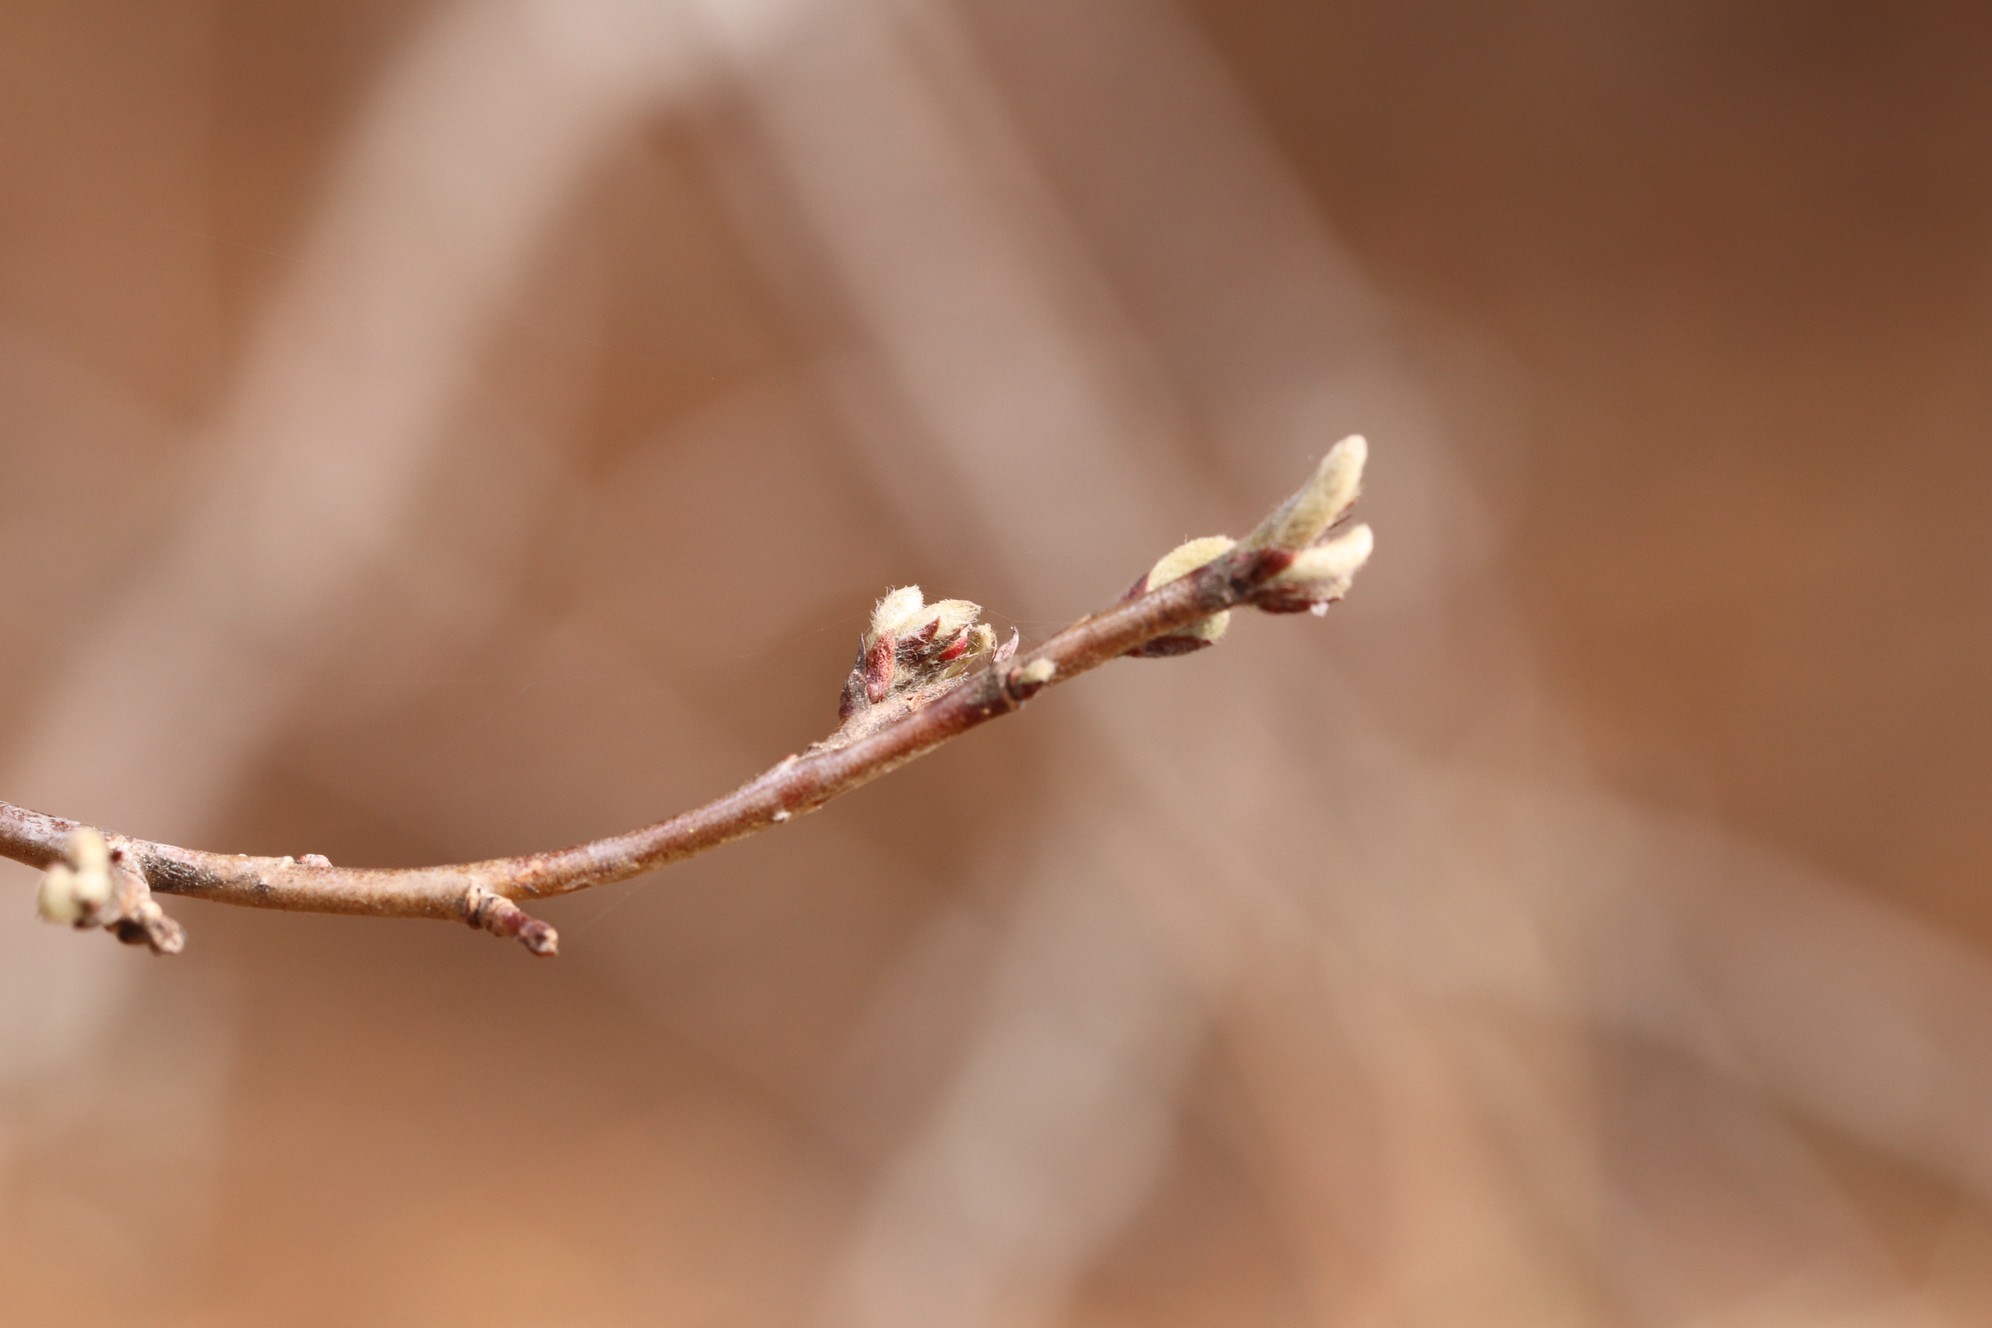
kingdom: Plantae
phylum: Tracheophyta
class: Magnoliopsida
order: Rosales
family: Rosaceae
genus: Cotoneaster
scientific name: Cotoneaster melanocarpus
